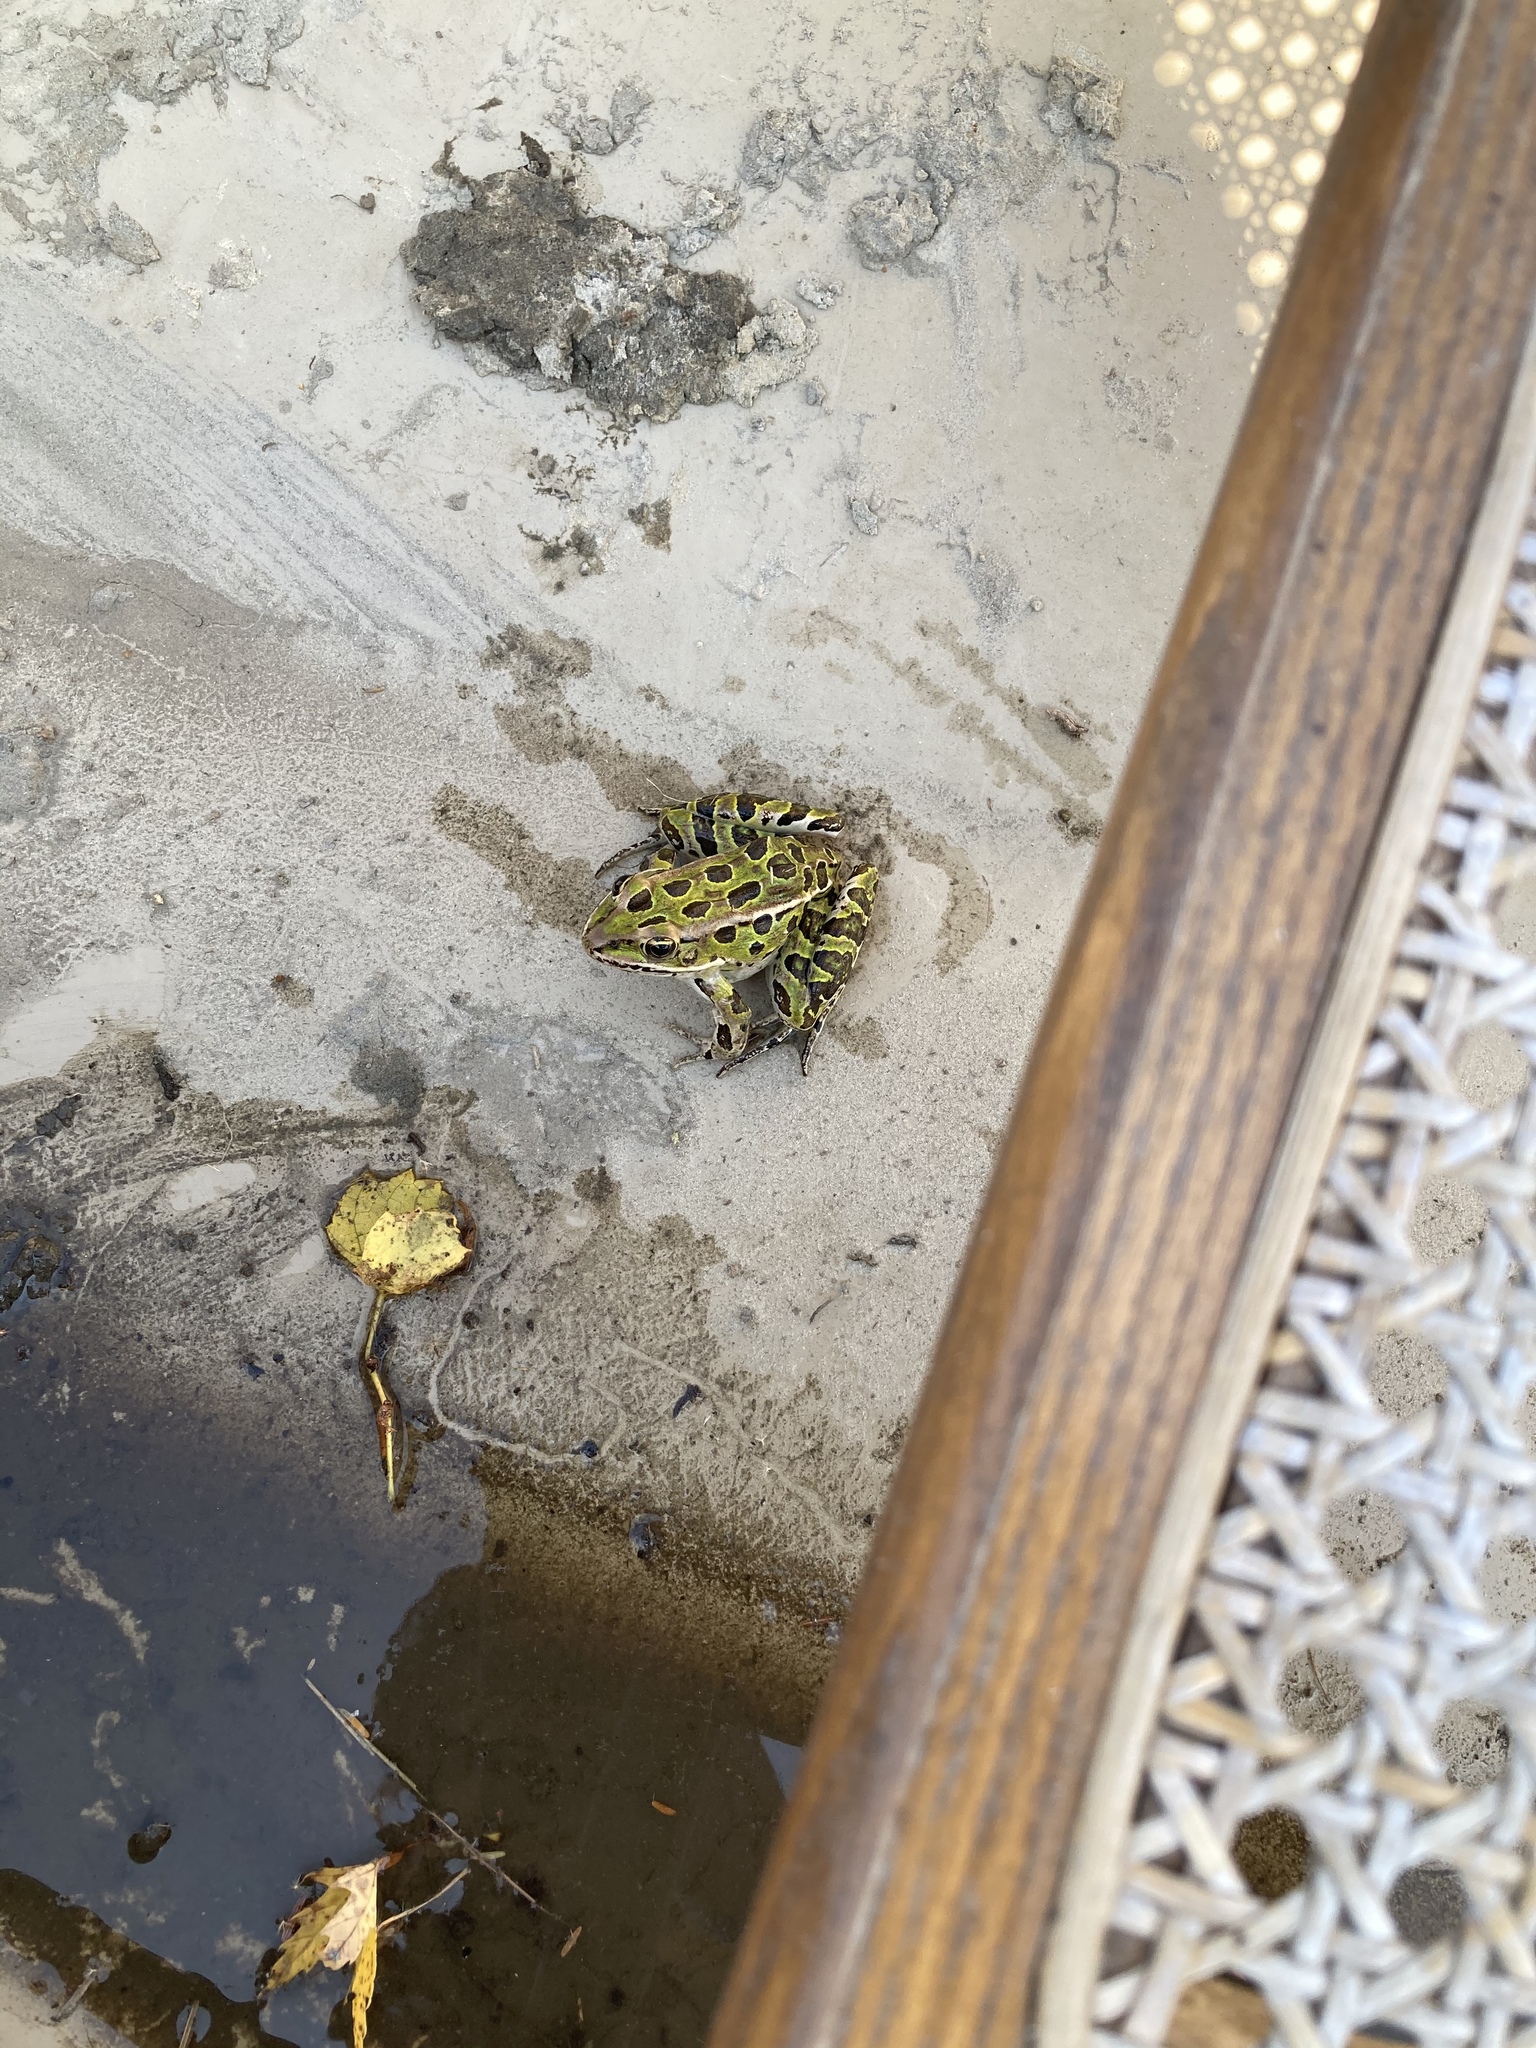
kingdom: Animalia
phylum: Chordata
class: Amphibia
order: Anura
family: Ranidae
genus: Lithobates
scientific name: Lithobates pipiens
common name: Northern leopard frog
